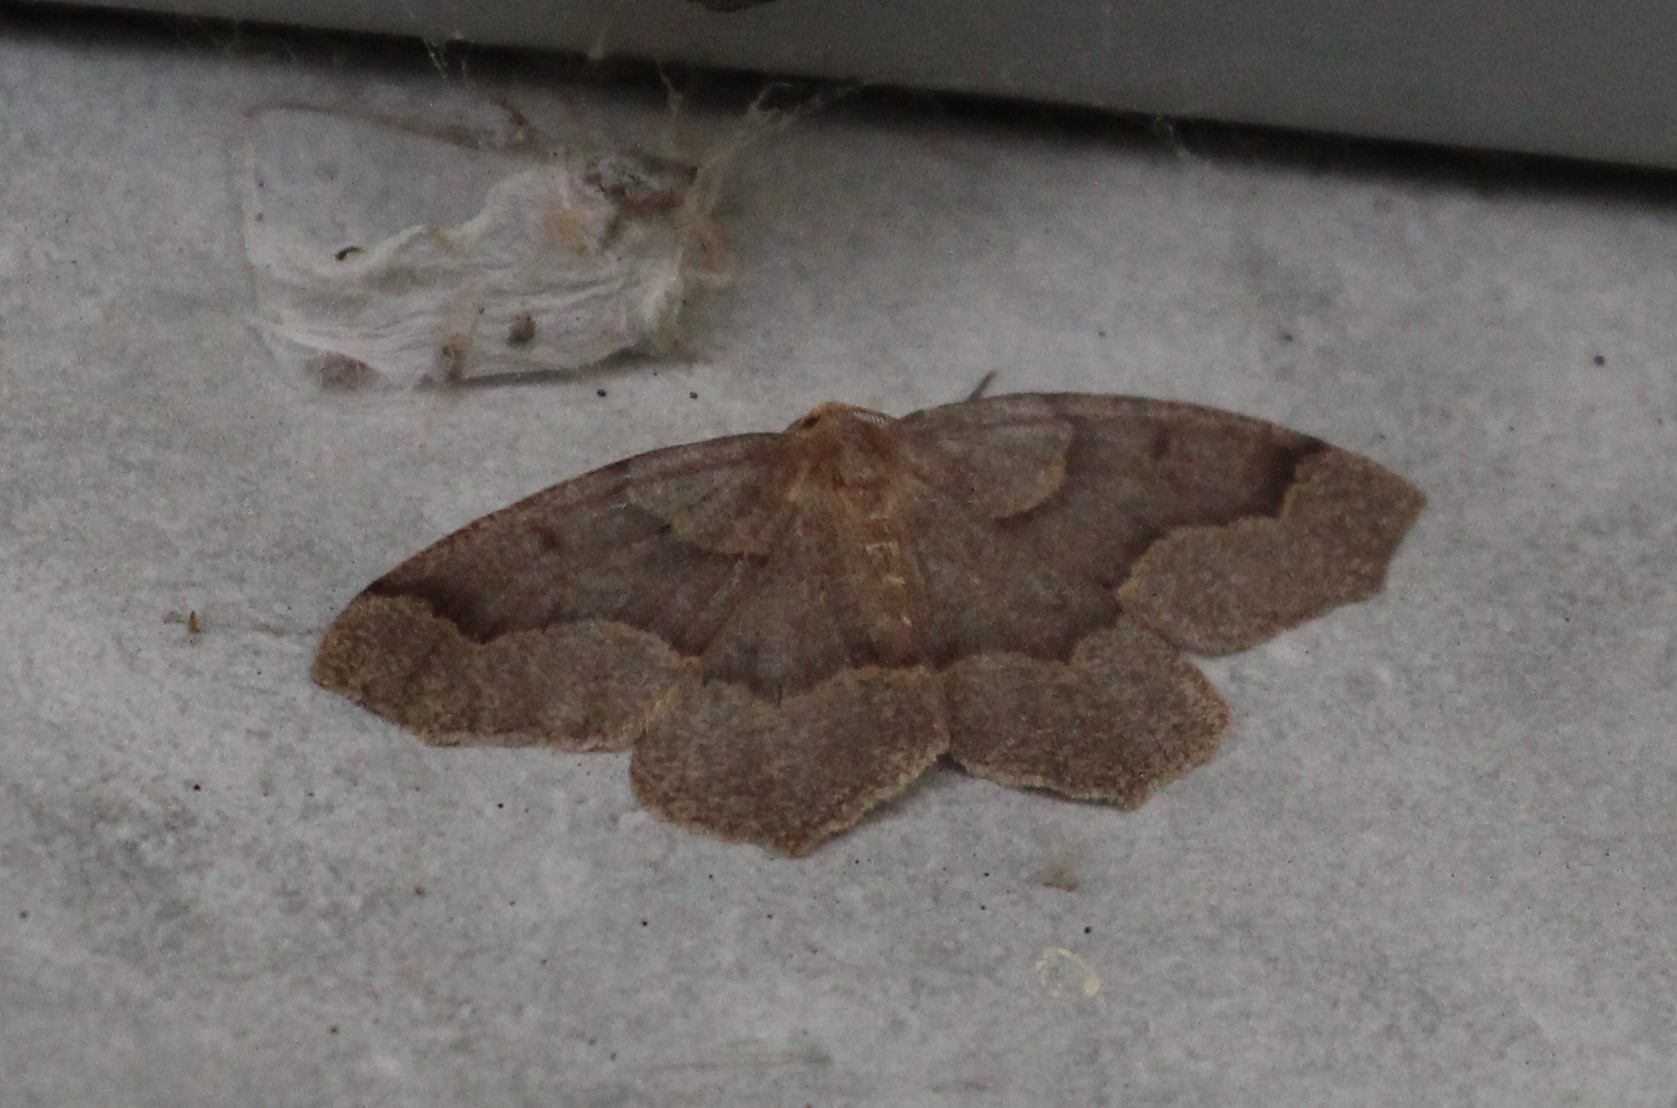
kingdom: Animalia
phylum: Arthropoda
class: Insecta
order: Lepidoptera
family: Geometridae
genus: Lambdina
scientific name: Lambdina fiscellaria
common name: Hemlock looper
